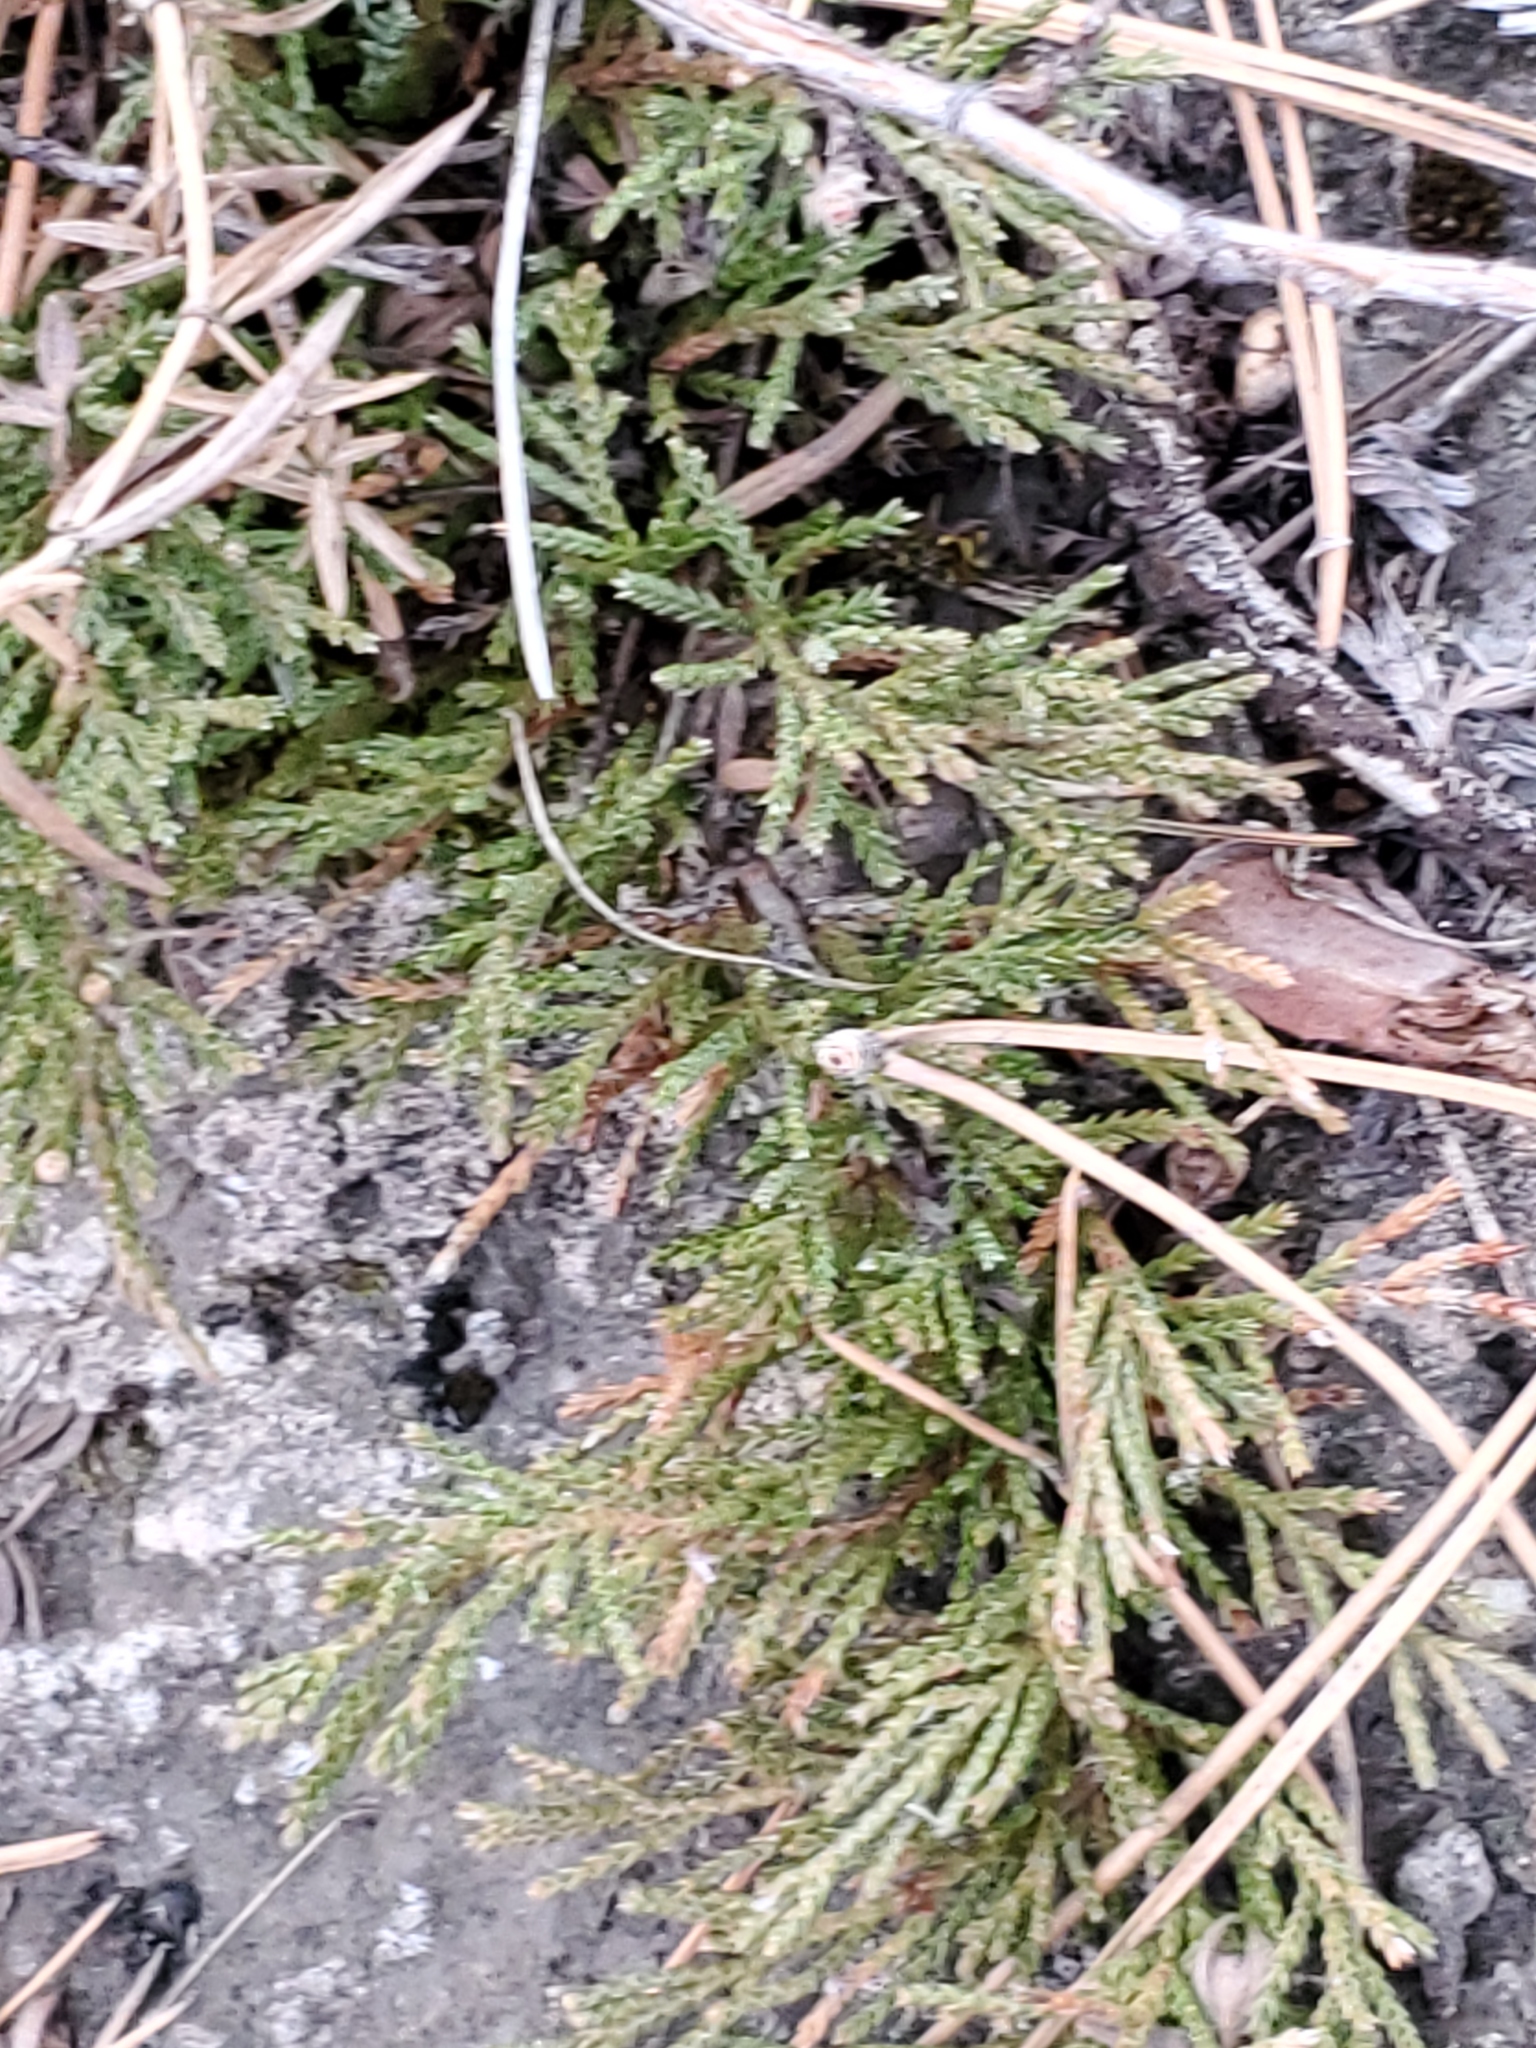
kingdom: Plantae
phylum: Tracheophyta
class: Pinopsida
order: Pinales
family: Cupressaceae
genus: Juniperus
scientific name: Juniperus horizontalis
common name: Creeping juniper
